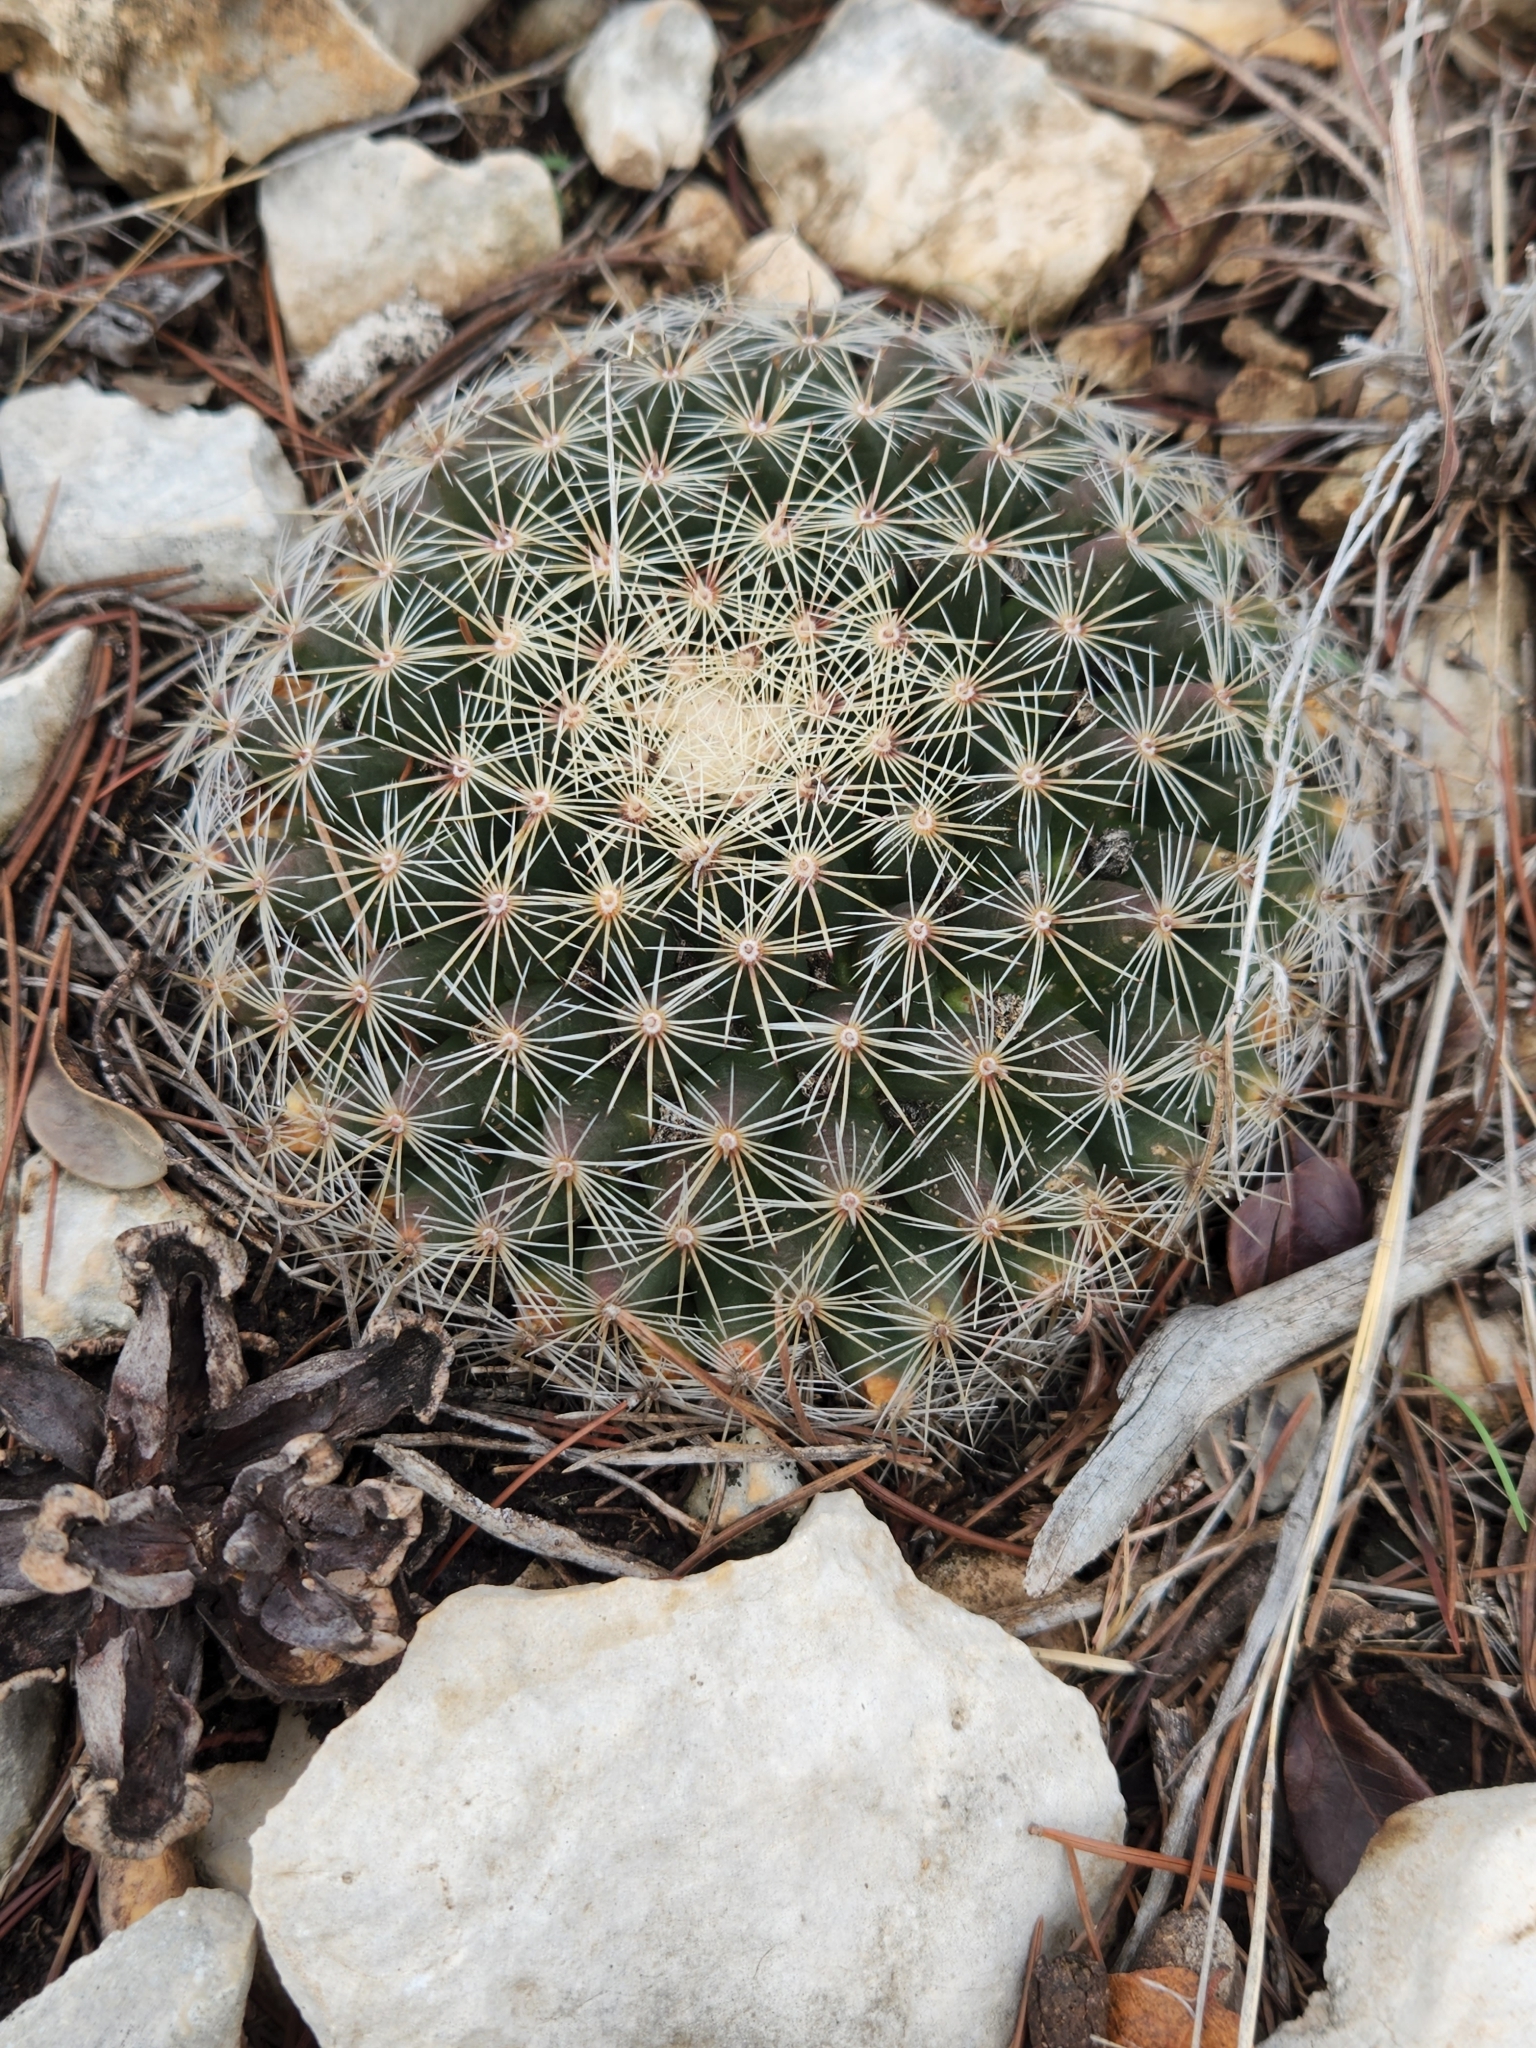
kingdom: Plantae
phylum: Tracheophyta
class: Magnoliopsida
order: Caryophyllales
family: Cactaceae
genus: Mammillaria
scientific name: Mammillaria heyderi
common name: Little nipple cactus
